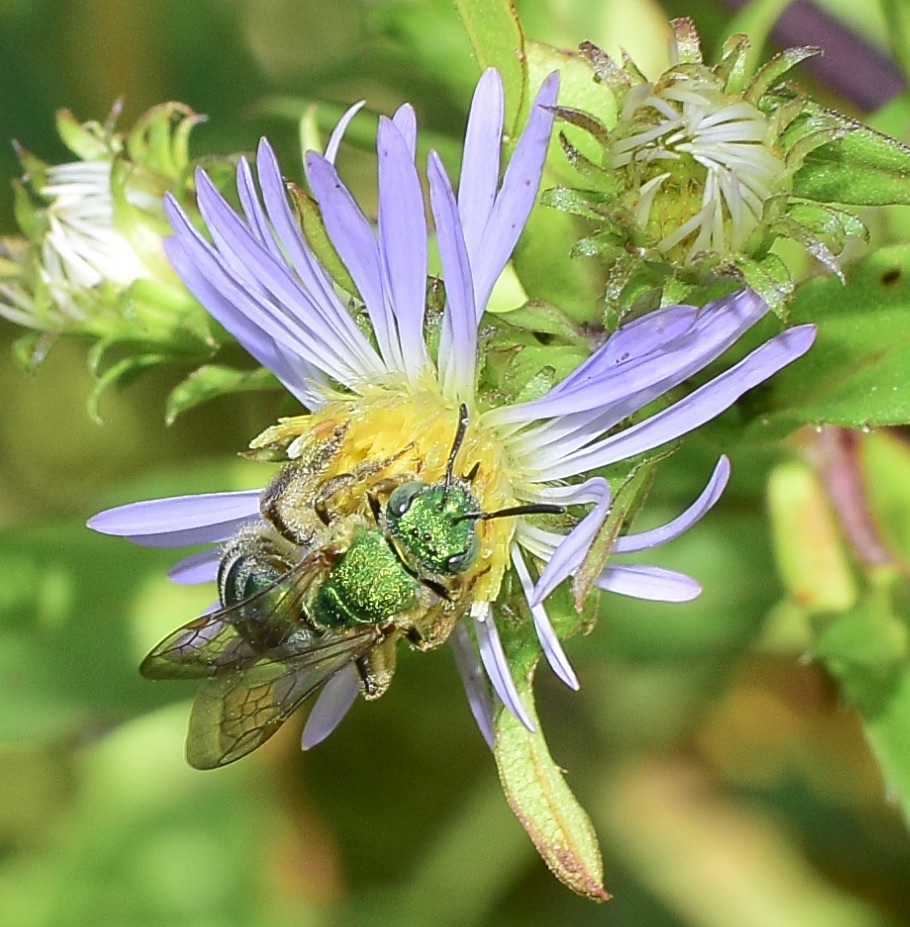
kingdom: Animalia
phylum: Arthropoda
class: Insecta
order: Hymenoptera
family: Halictidae
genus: Agapostemon
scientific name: Agapostemon sericeus
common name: Silky striped sweat bee
